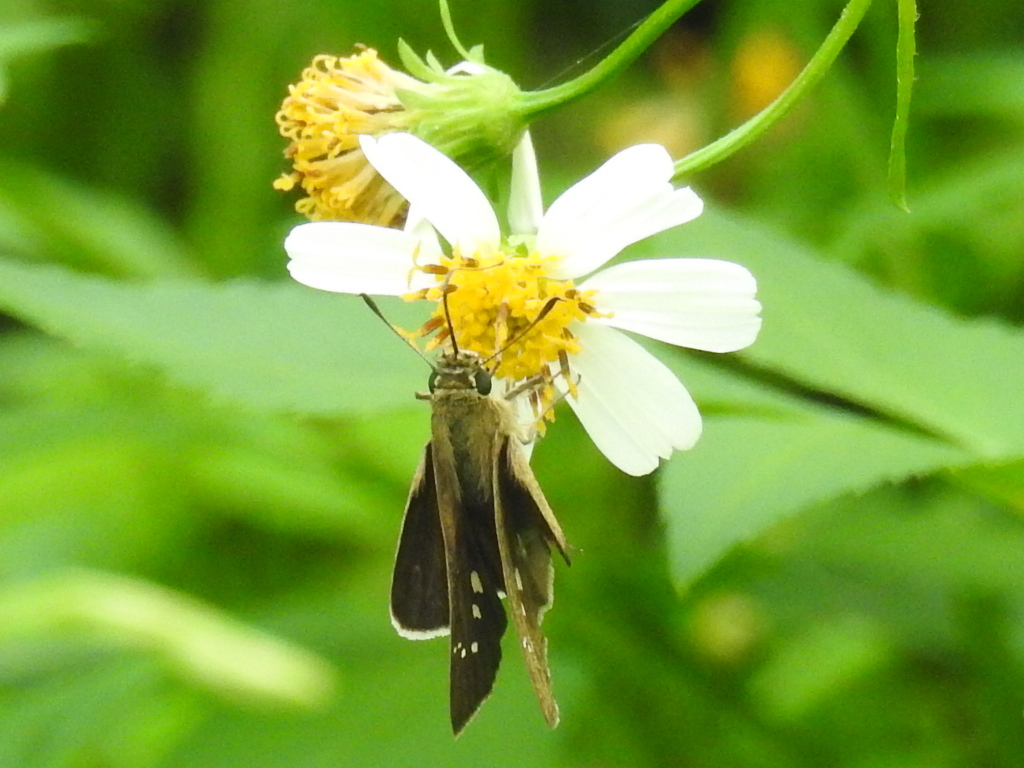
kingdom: Animalia
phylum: Arthropoda
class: Insecta
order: Lepidoptera
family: Hesperiidae
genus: Borbo
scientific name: Borbo cinnara
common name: Formosan swift
